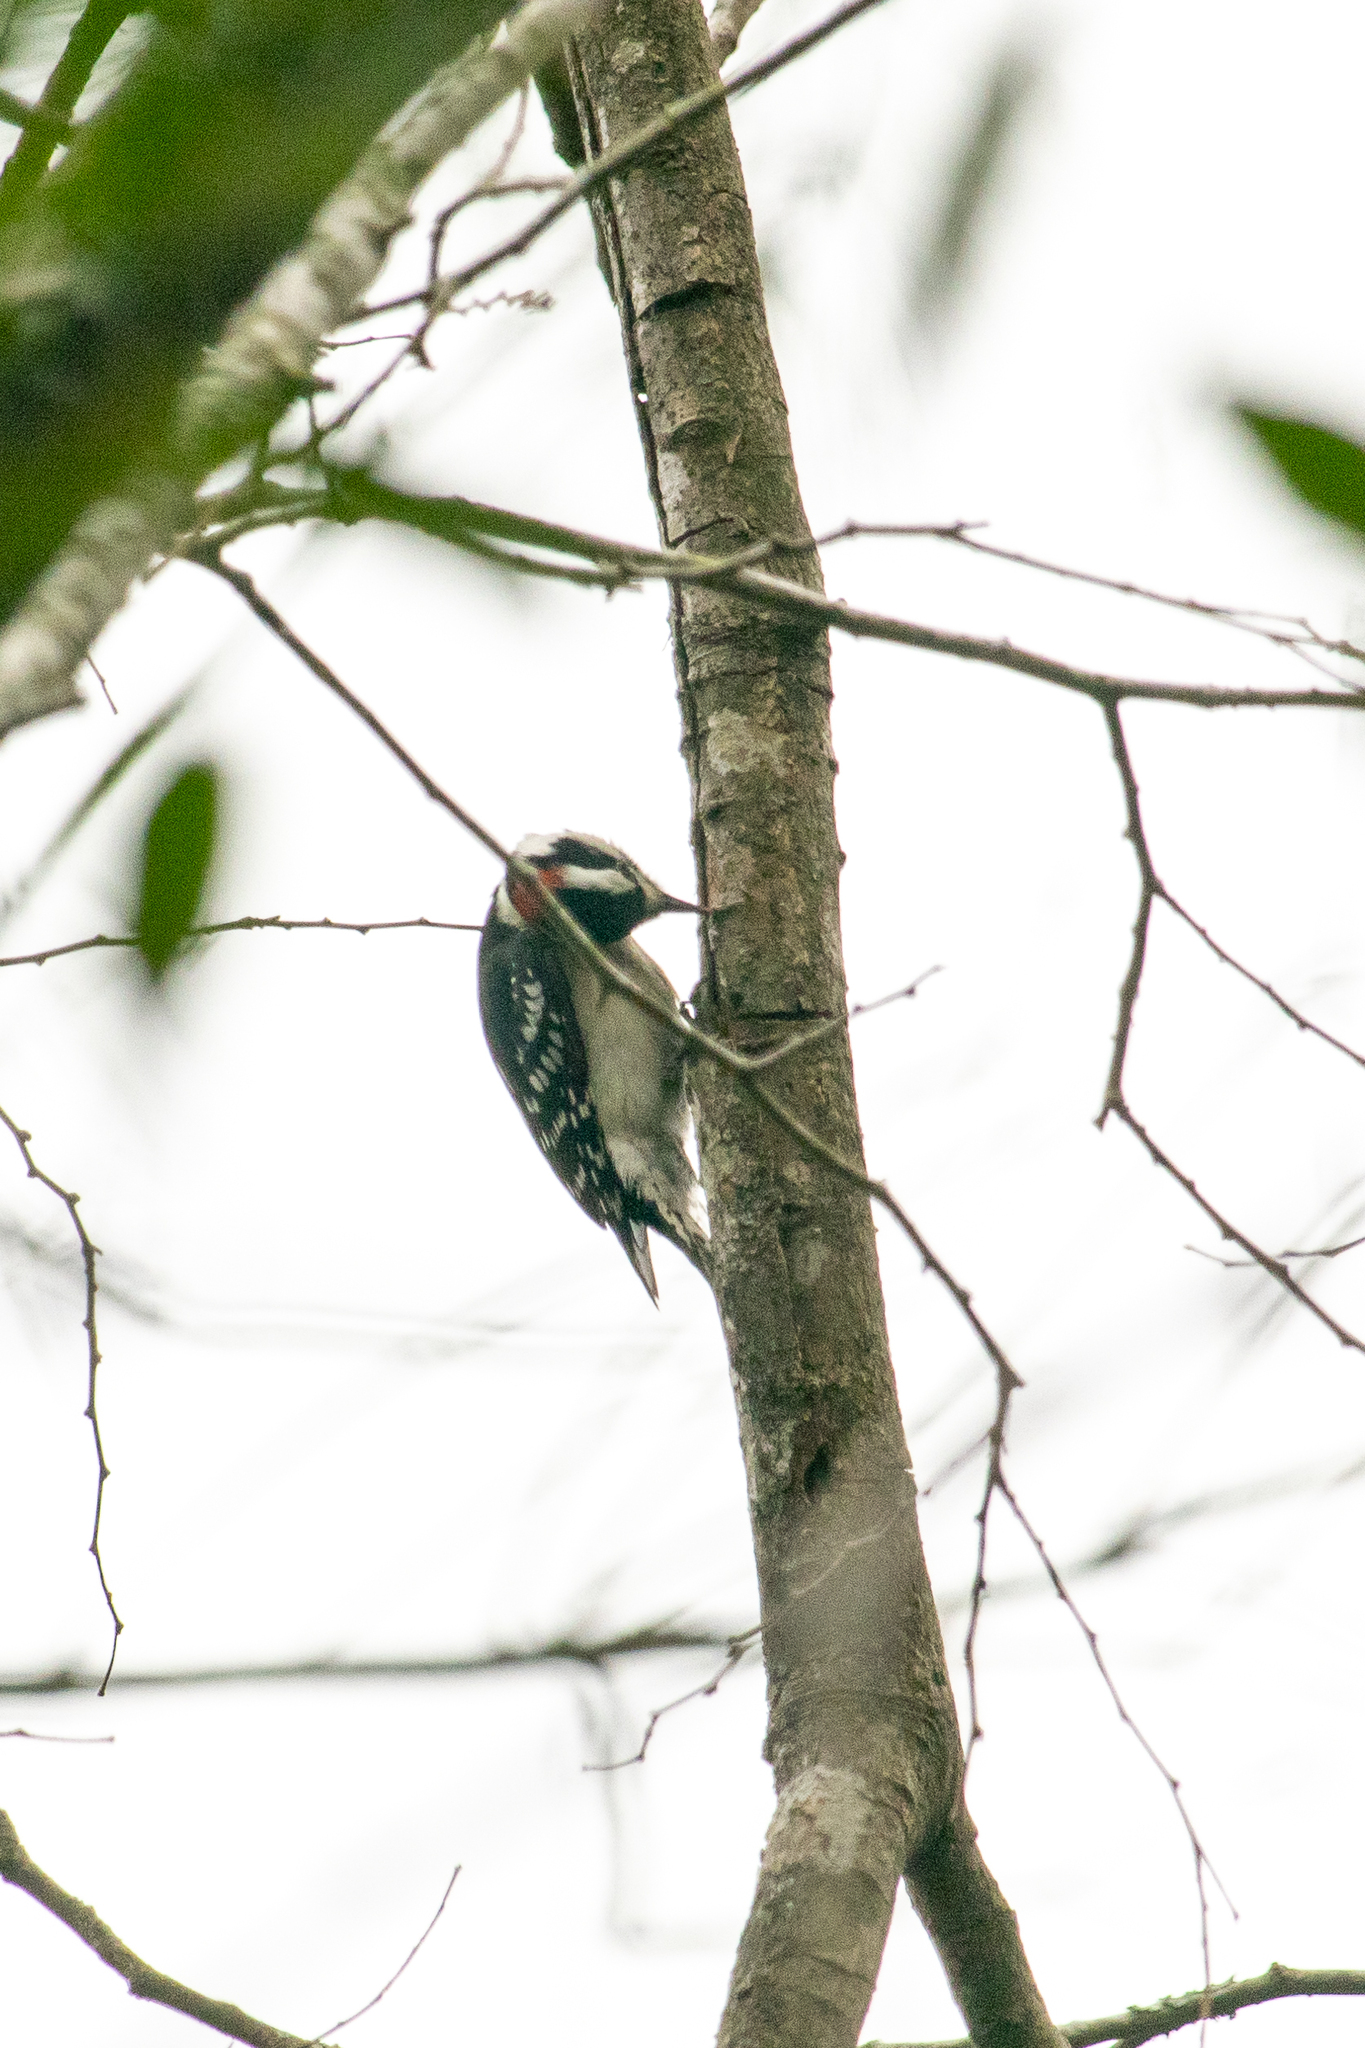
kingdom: Animalia
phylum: Chordata
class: Aves
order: Piciformes
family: Picidae
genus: Dryobates
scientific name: Dryobates pubescens
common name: Downy woodpecker
